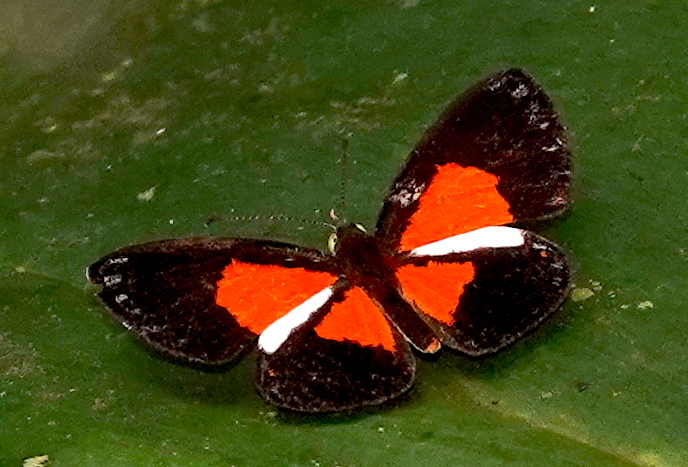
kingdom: Animalia
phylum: Arthropoda
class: Insecta
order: Lepidoptera
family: Riodinidae
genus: Cariomothis
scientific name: Cariomothis erythromelas
